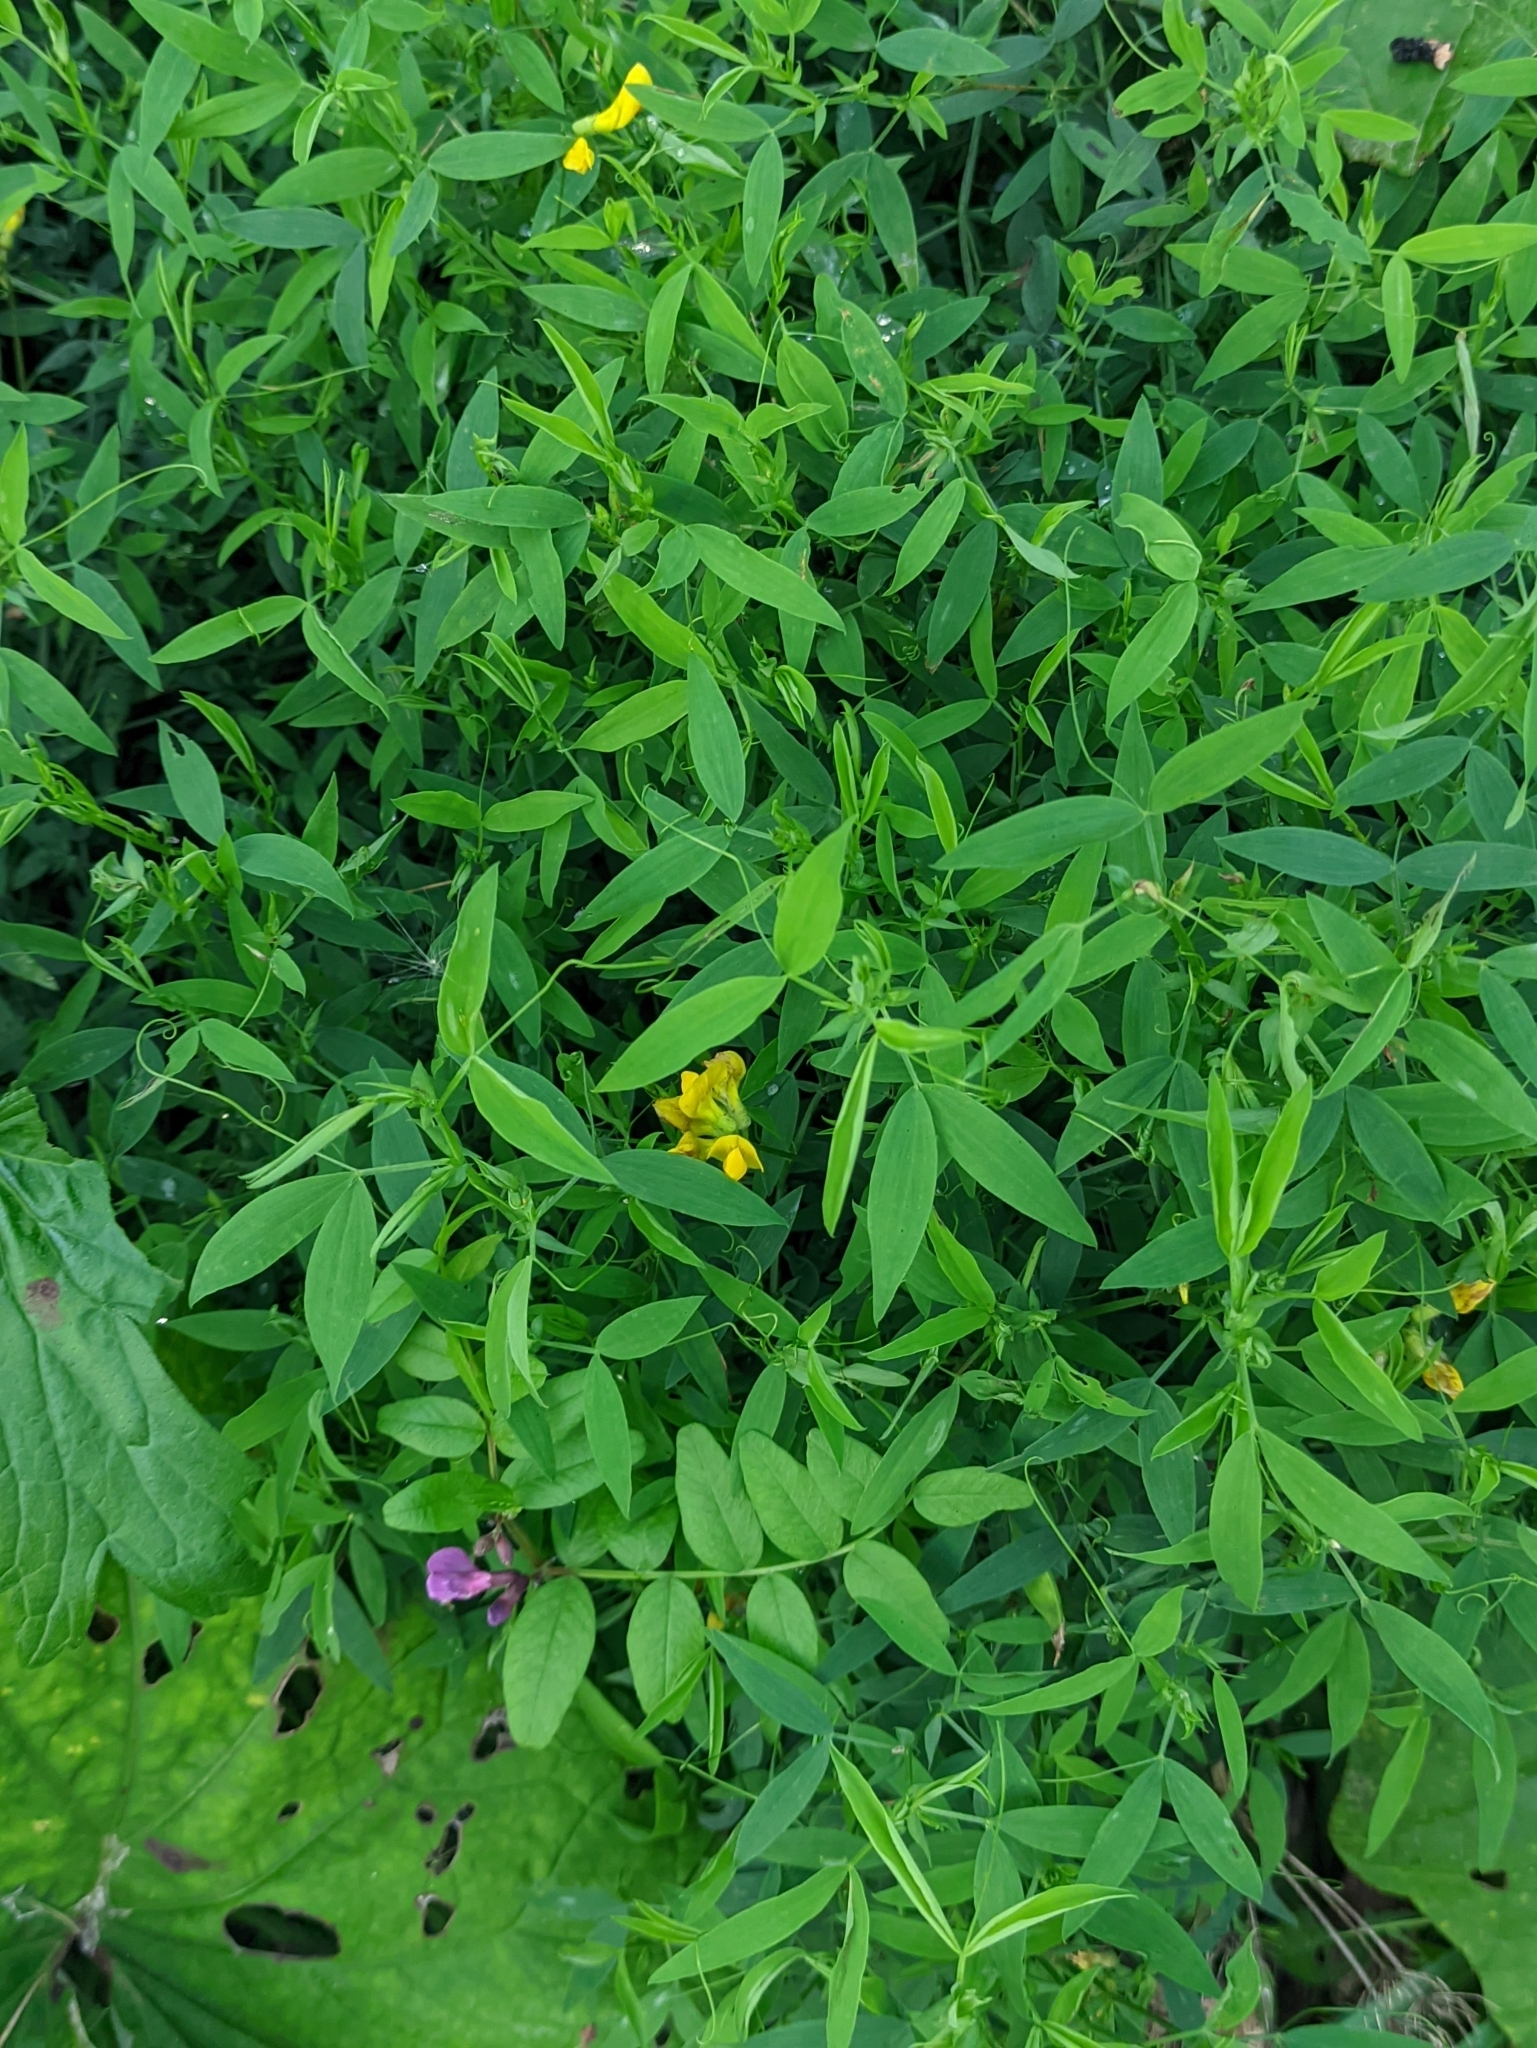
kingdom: Plantae
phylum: Tracheophyta
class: Magnoliopsida
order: Fabales
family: Fabaceae
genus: Lathyrus
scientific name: Lathyrus pratensis
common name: Meadow vetchling
